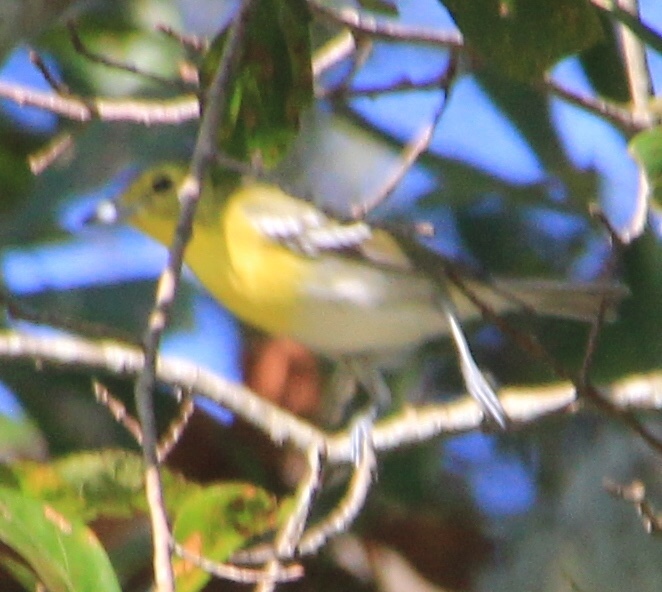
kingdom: Animalia
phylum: Chordata
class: Aves
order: Passeriformes
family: Vireonidae
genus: Vireo
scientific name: Vireo flavifrons
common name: Yellow-throated vireo
